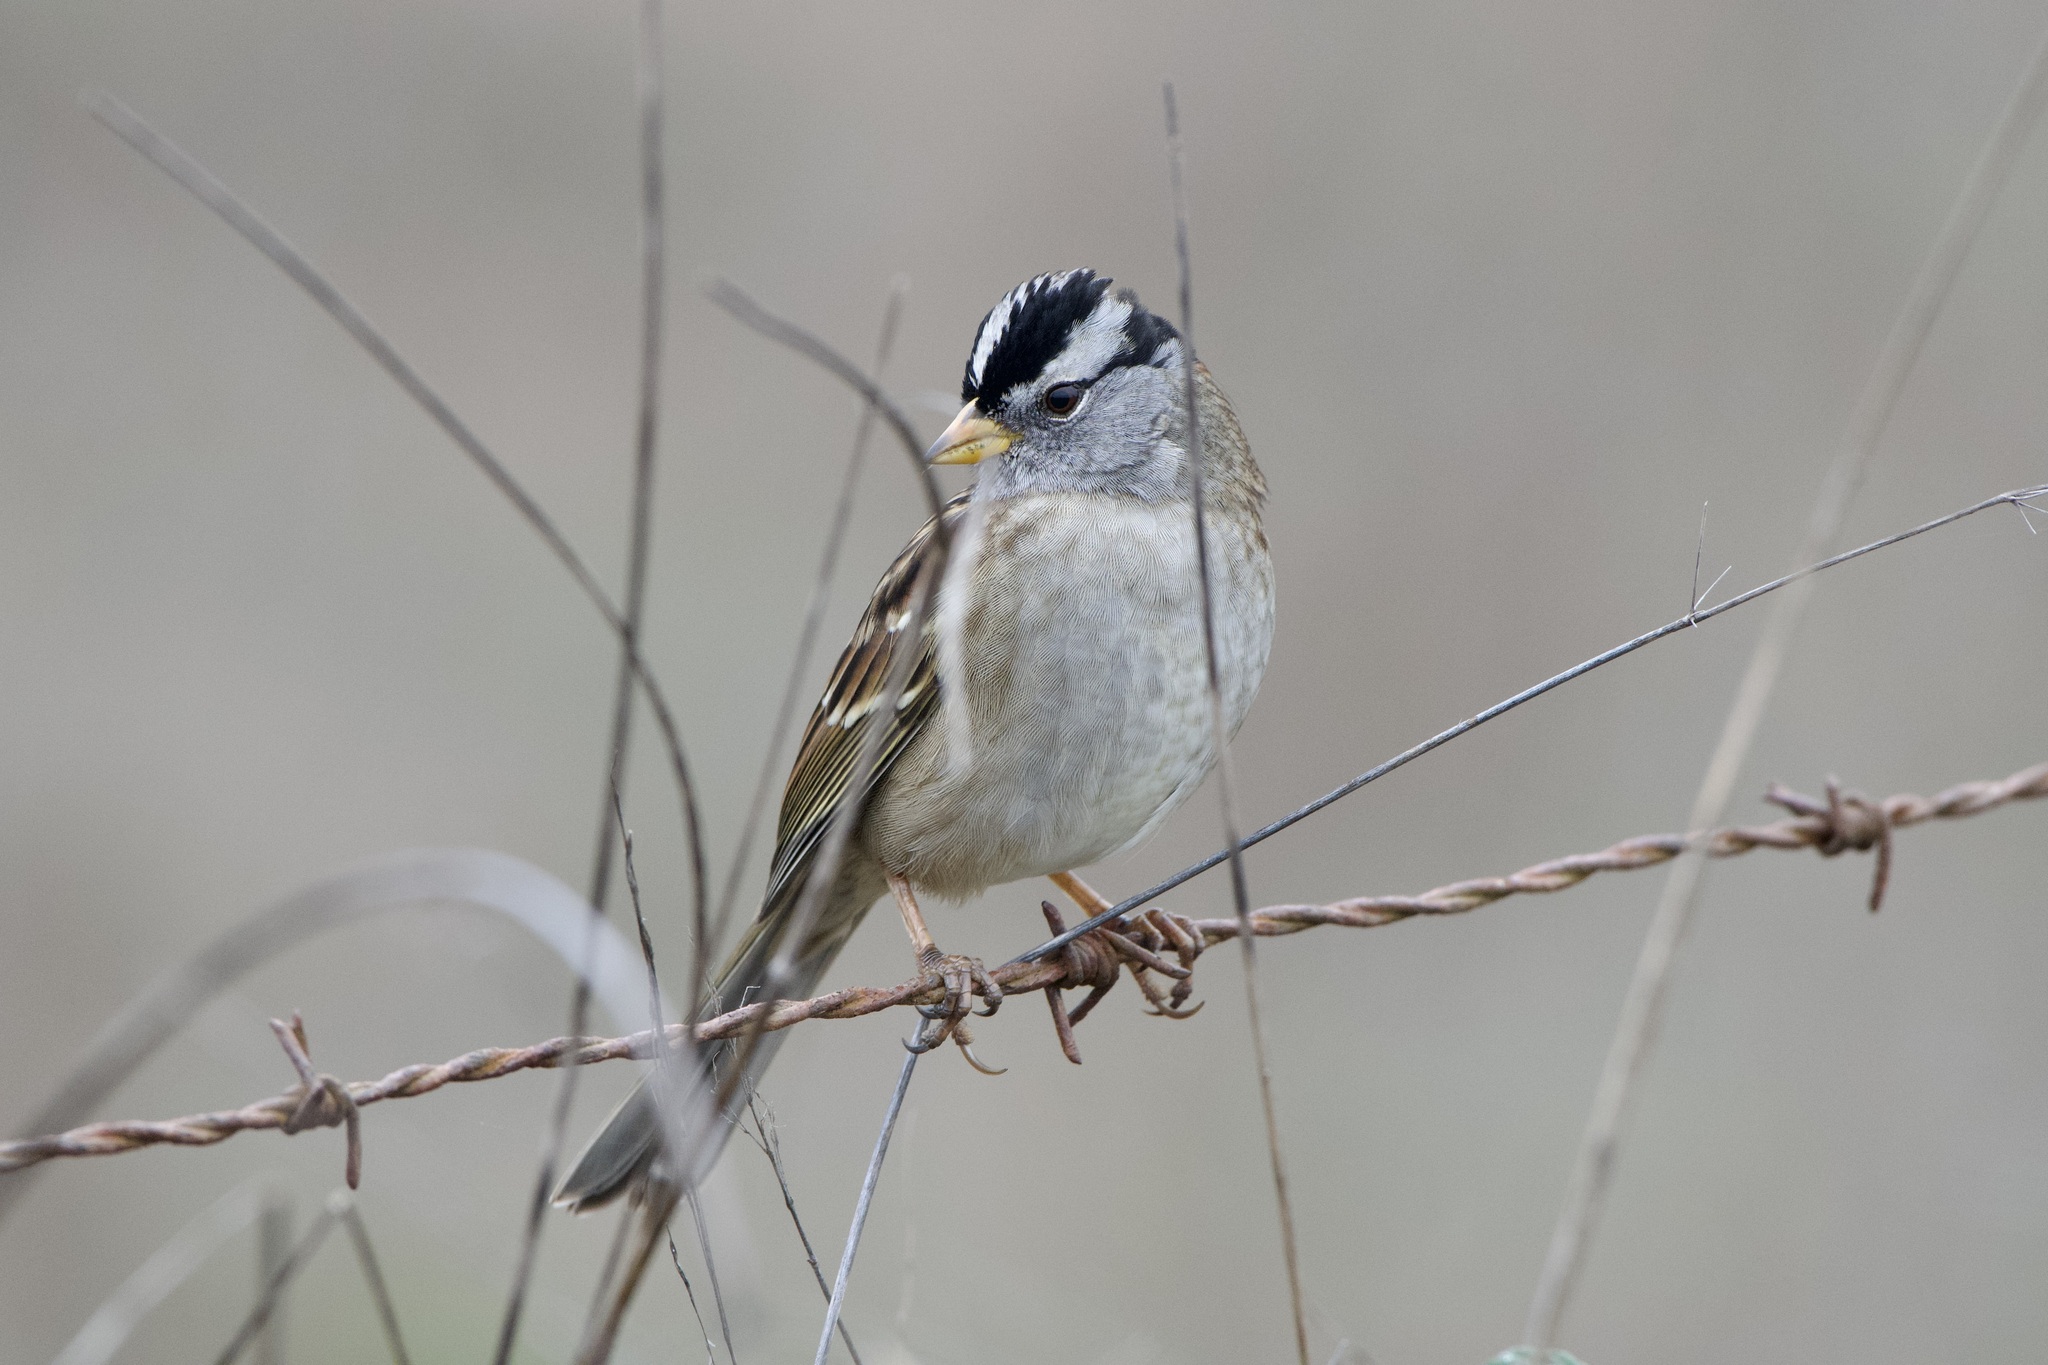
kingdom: Animalia
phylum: Chordata
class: Aves
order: Passeriformes
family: Passerellidae
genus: Zonotrichia
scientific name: Zonotrichia leucophrys
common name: White-crowned sparrow
